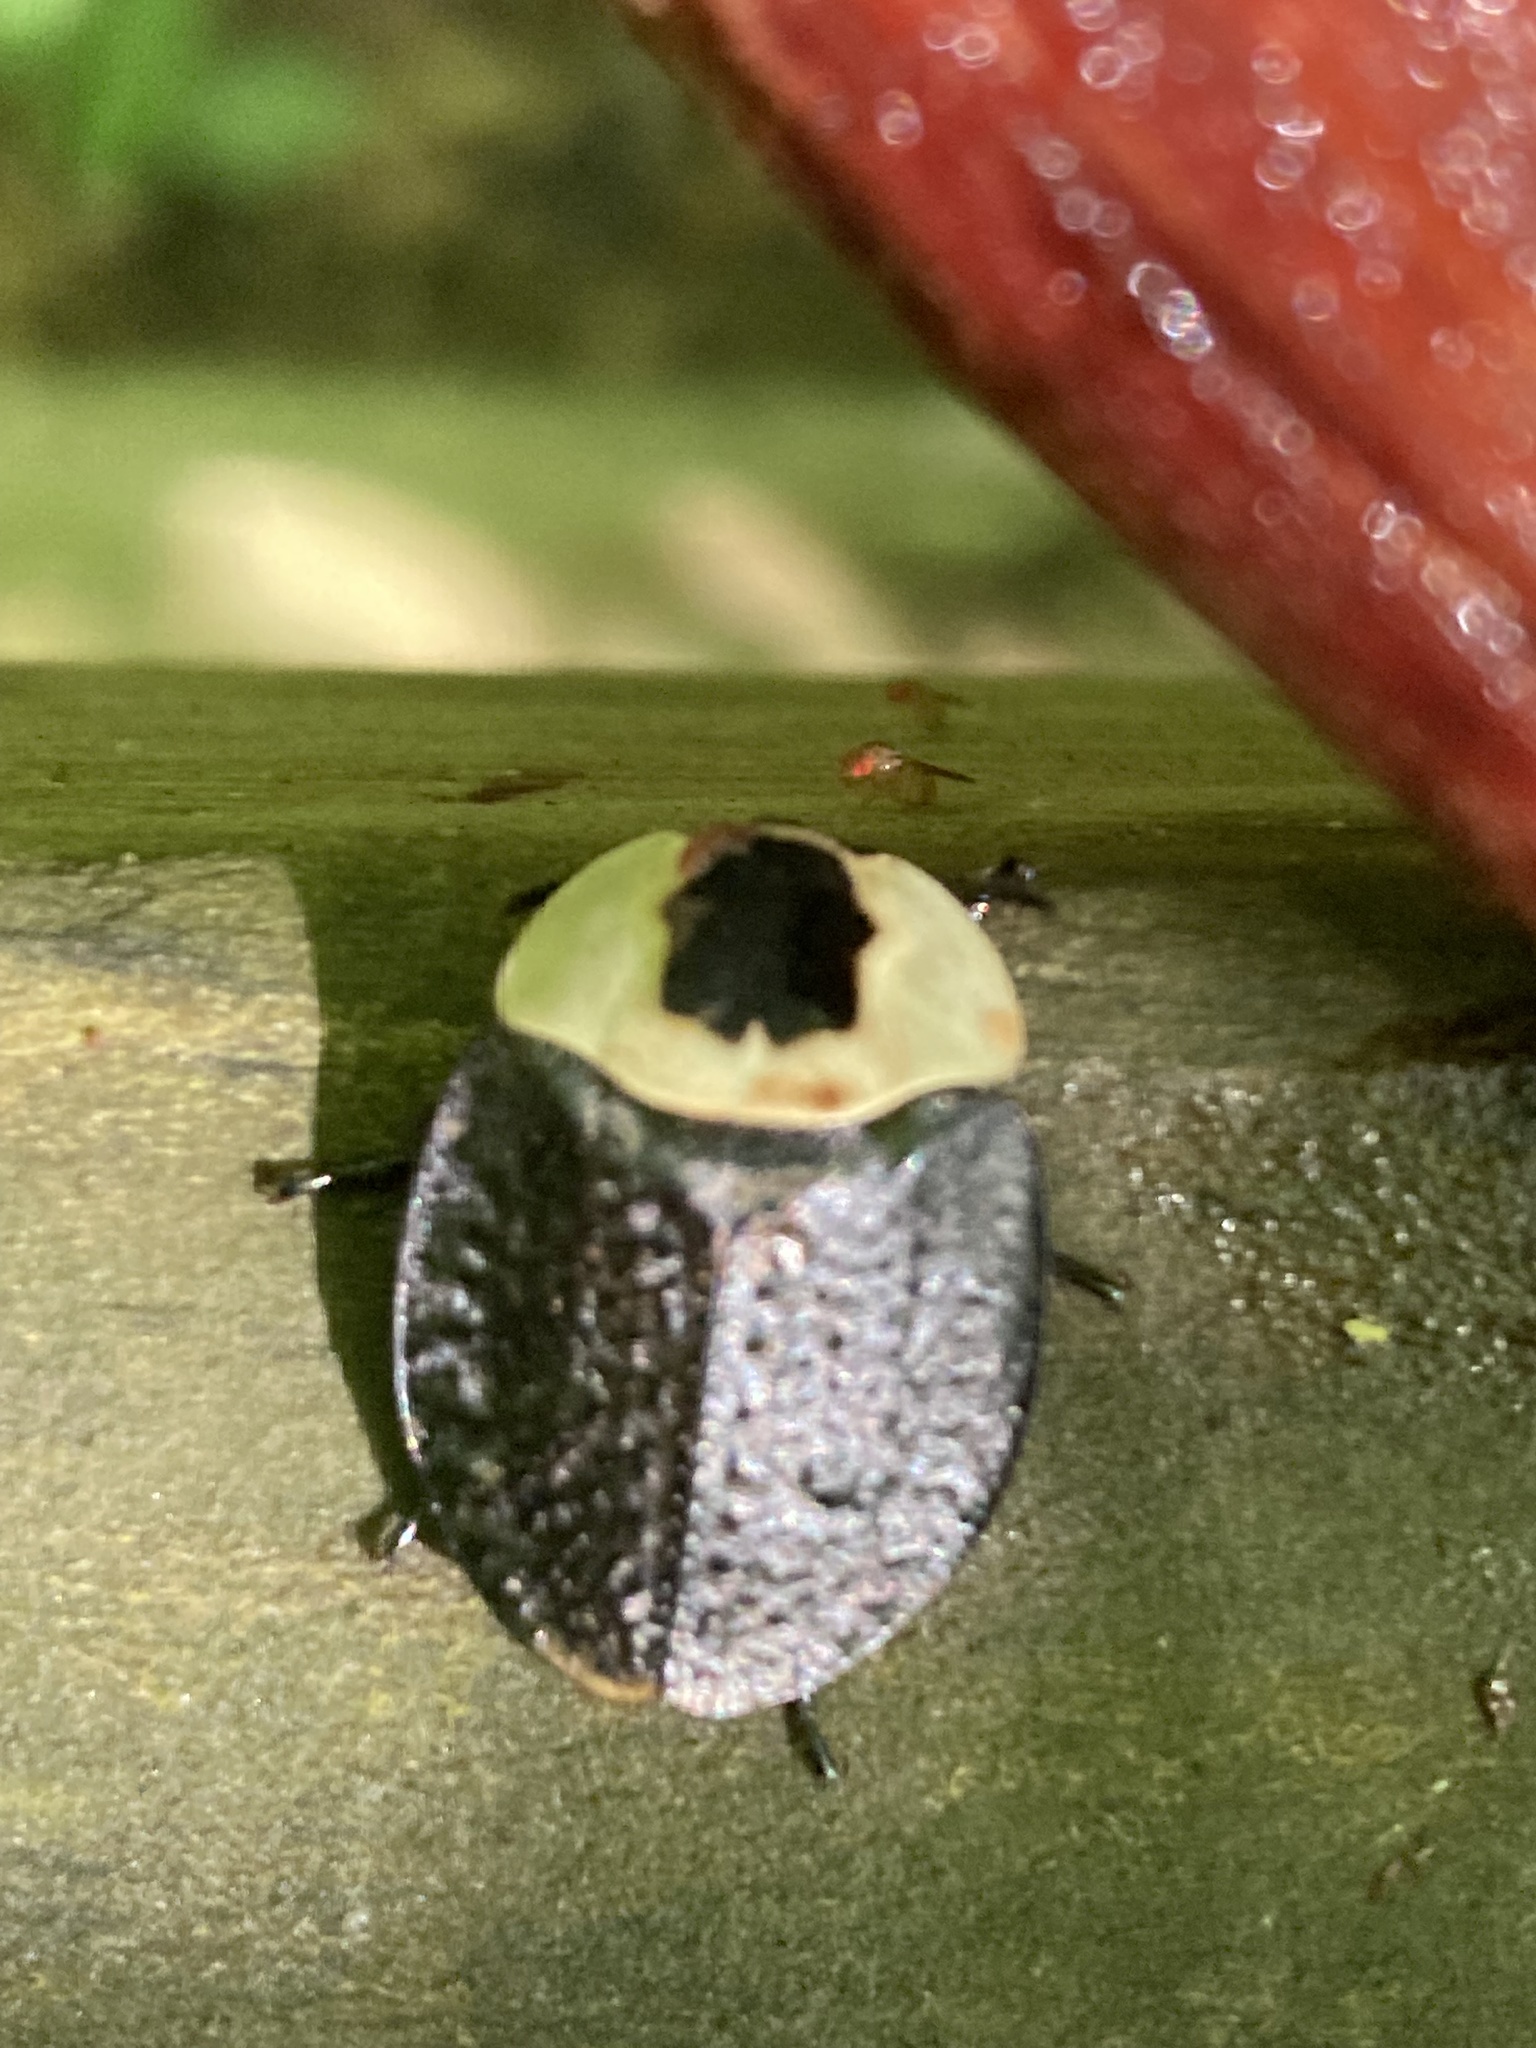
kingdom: Animalia
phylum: Arthropoda
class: Insecta
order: Coleoptera
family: Staphylinidae
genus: Necrophila
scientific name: Necrophila americana
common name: American carrion beetle
